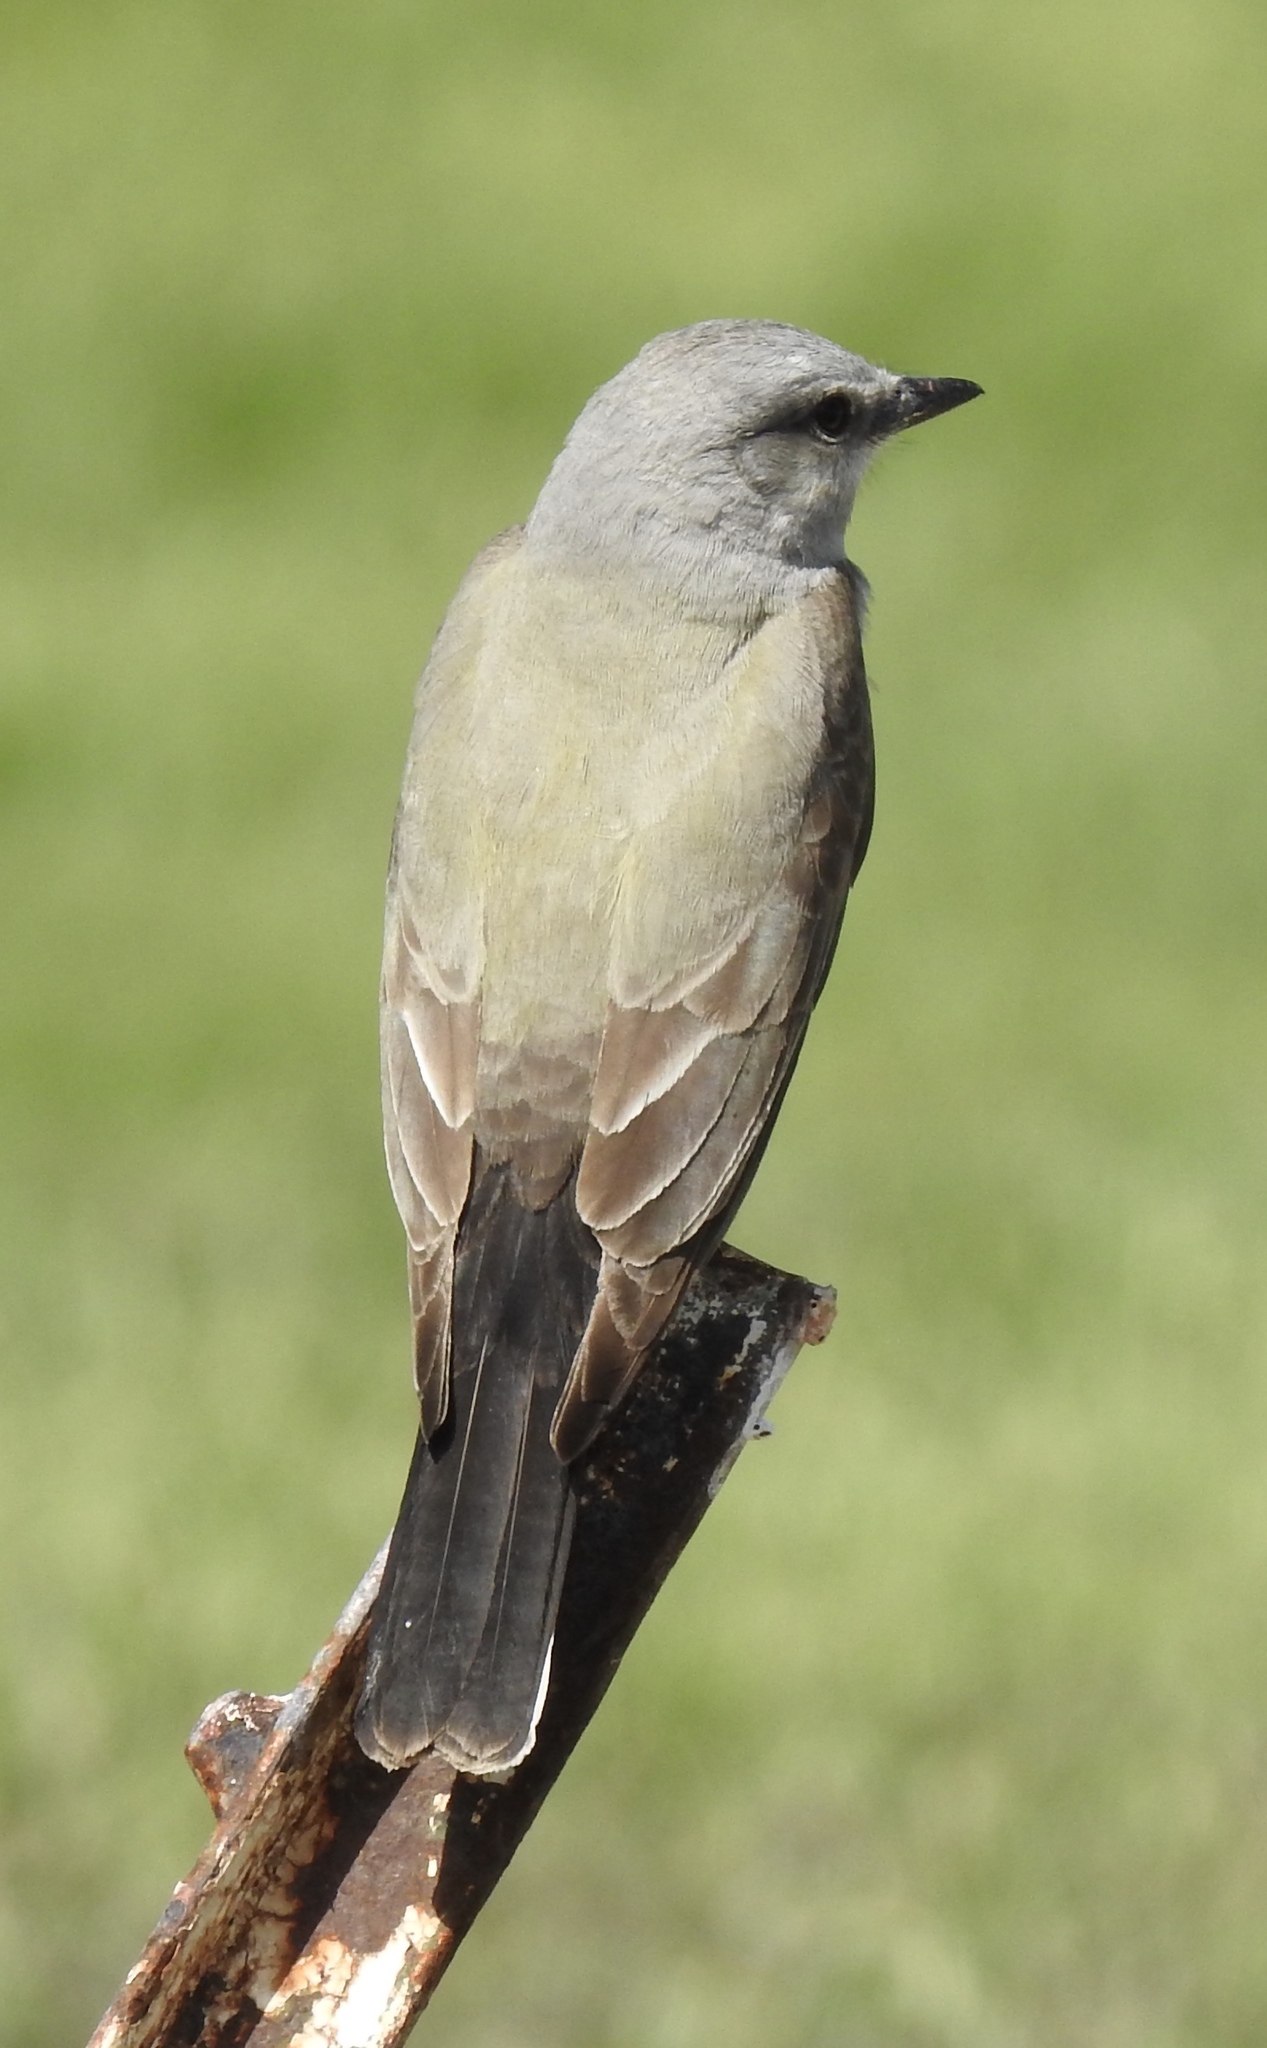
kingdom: Animalia
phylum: Chordata
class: Aves
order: Passeriformes
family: Tyrannidae
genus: Tyrannus
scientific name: Tyrannus verticalis
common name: Western kingbird
